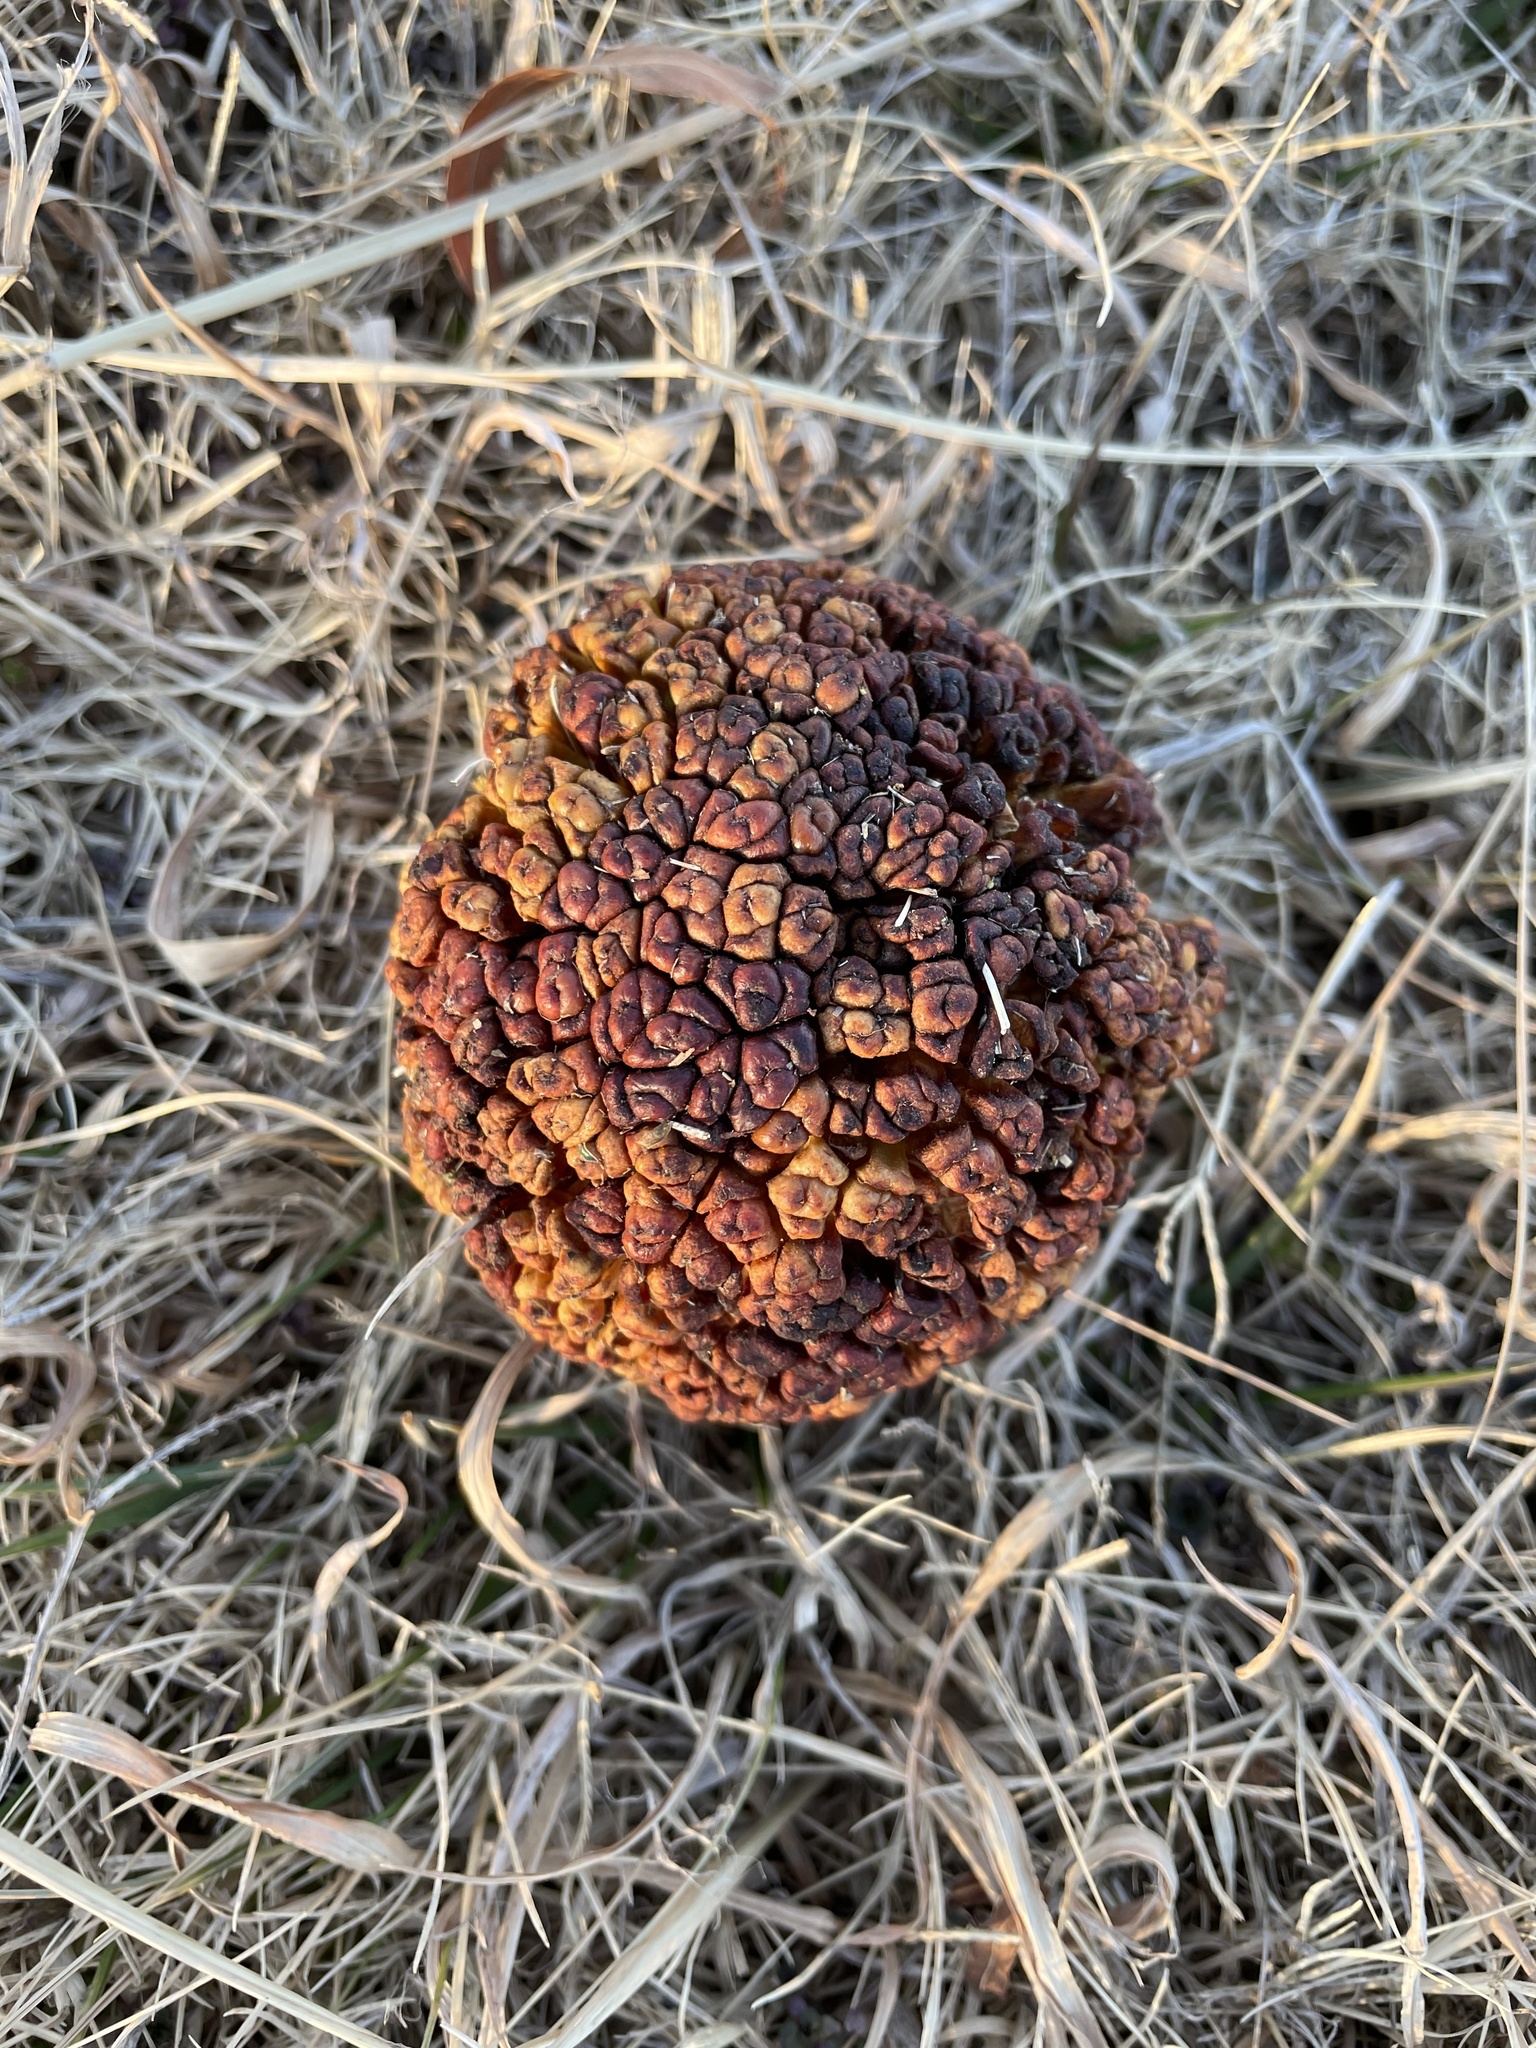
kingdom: Plantae
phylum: Tracheophyta
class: Magnoliopsida
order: Rosales
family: Moraceae
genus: Maclura
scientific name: Maclura pomifera
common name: Osage-orange
